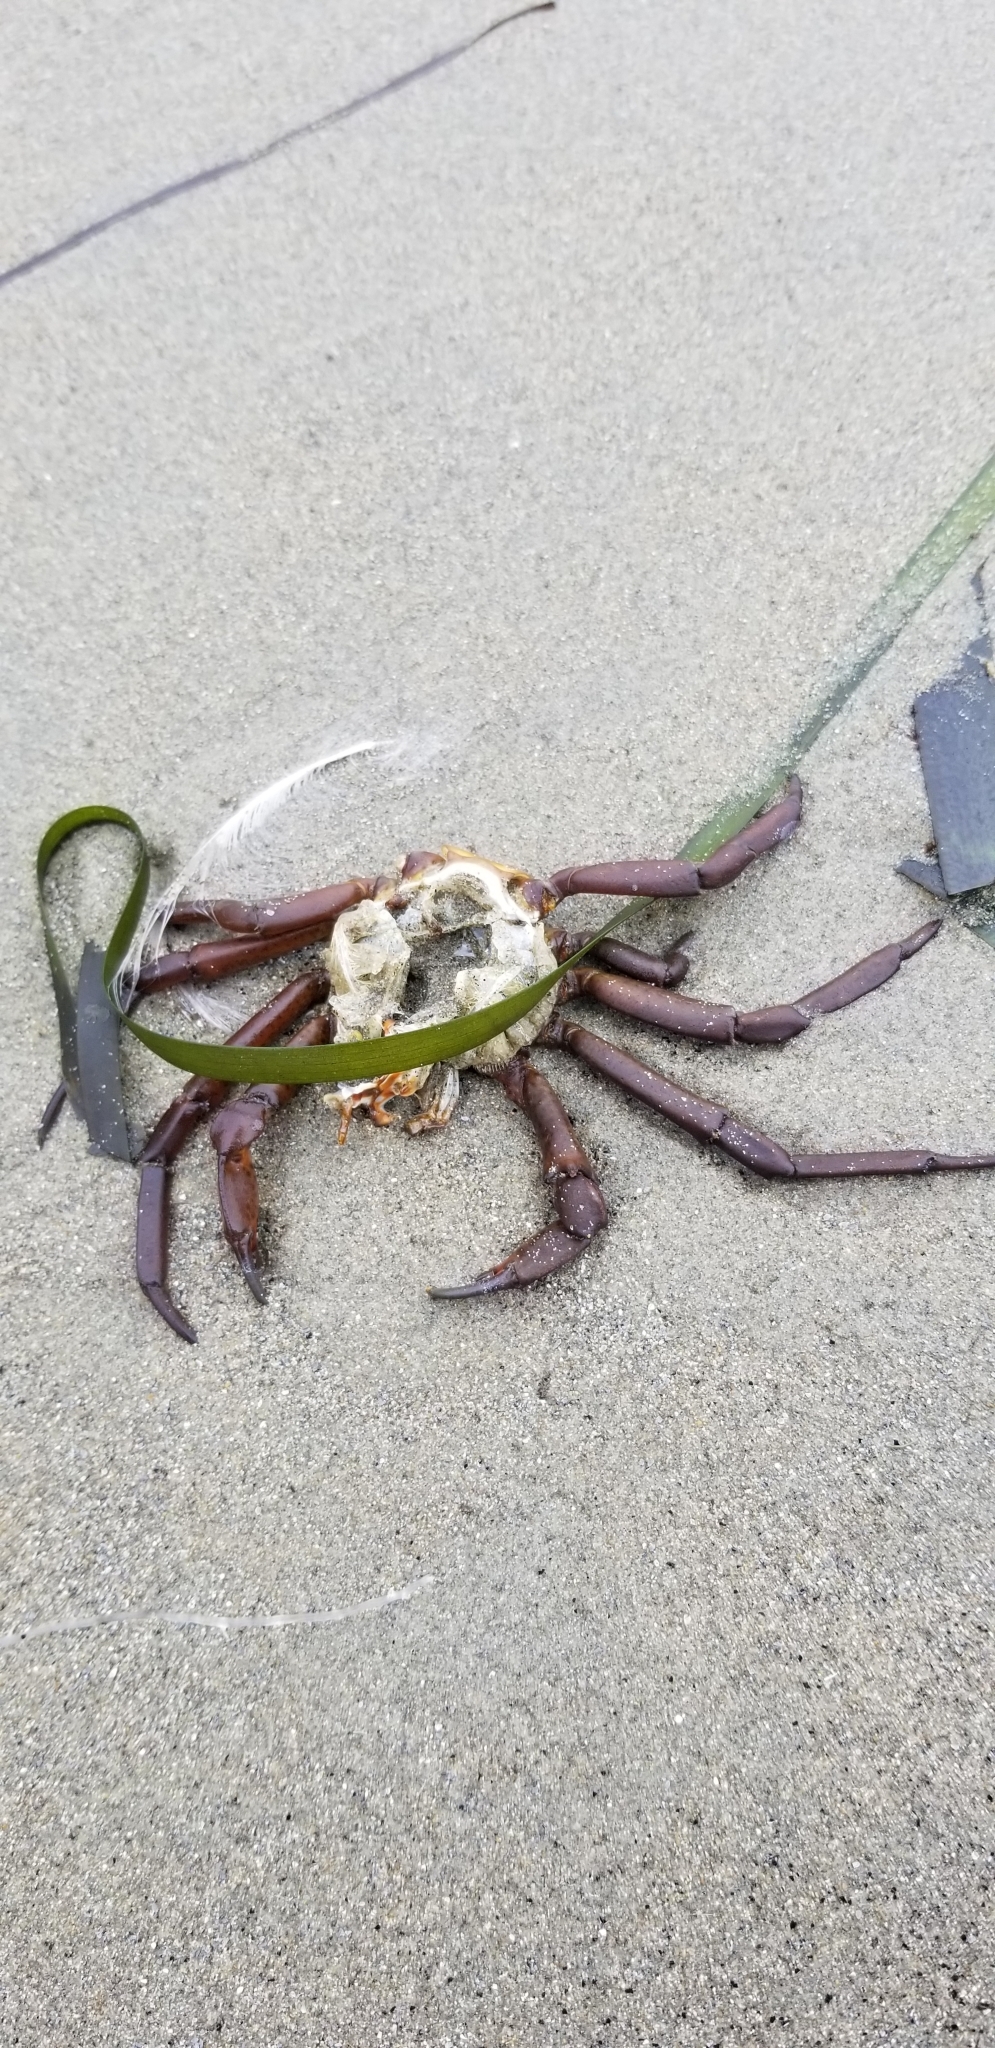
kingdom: Animalia
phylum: Arthropoda
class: Malacostraca
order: Decapoda
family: Epialtidae
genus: Pugettia
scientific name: Pugettia producta
